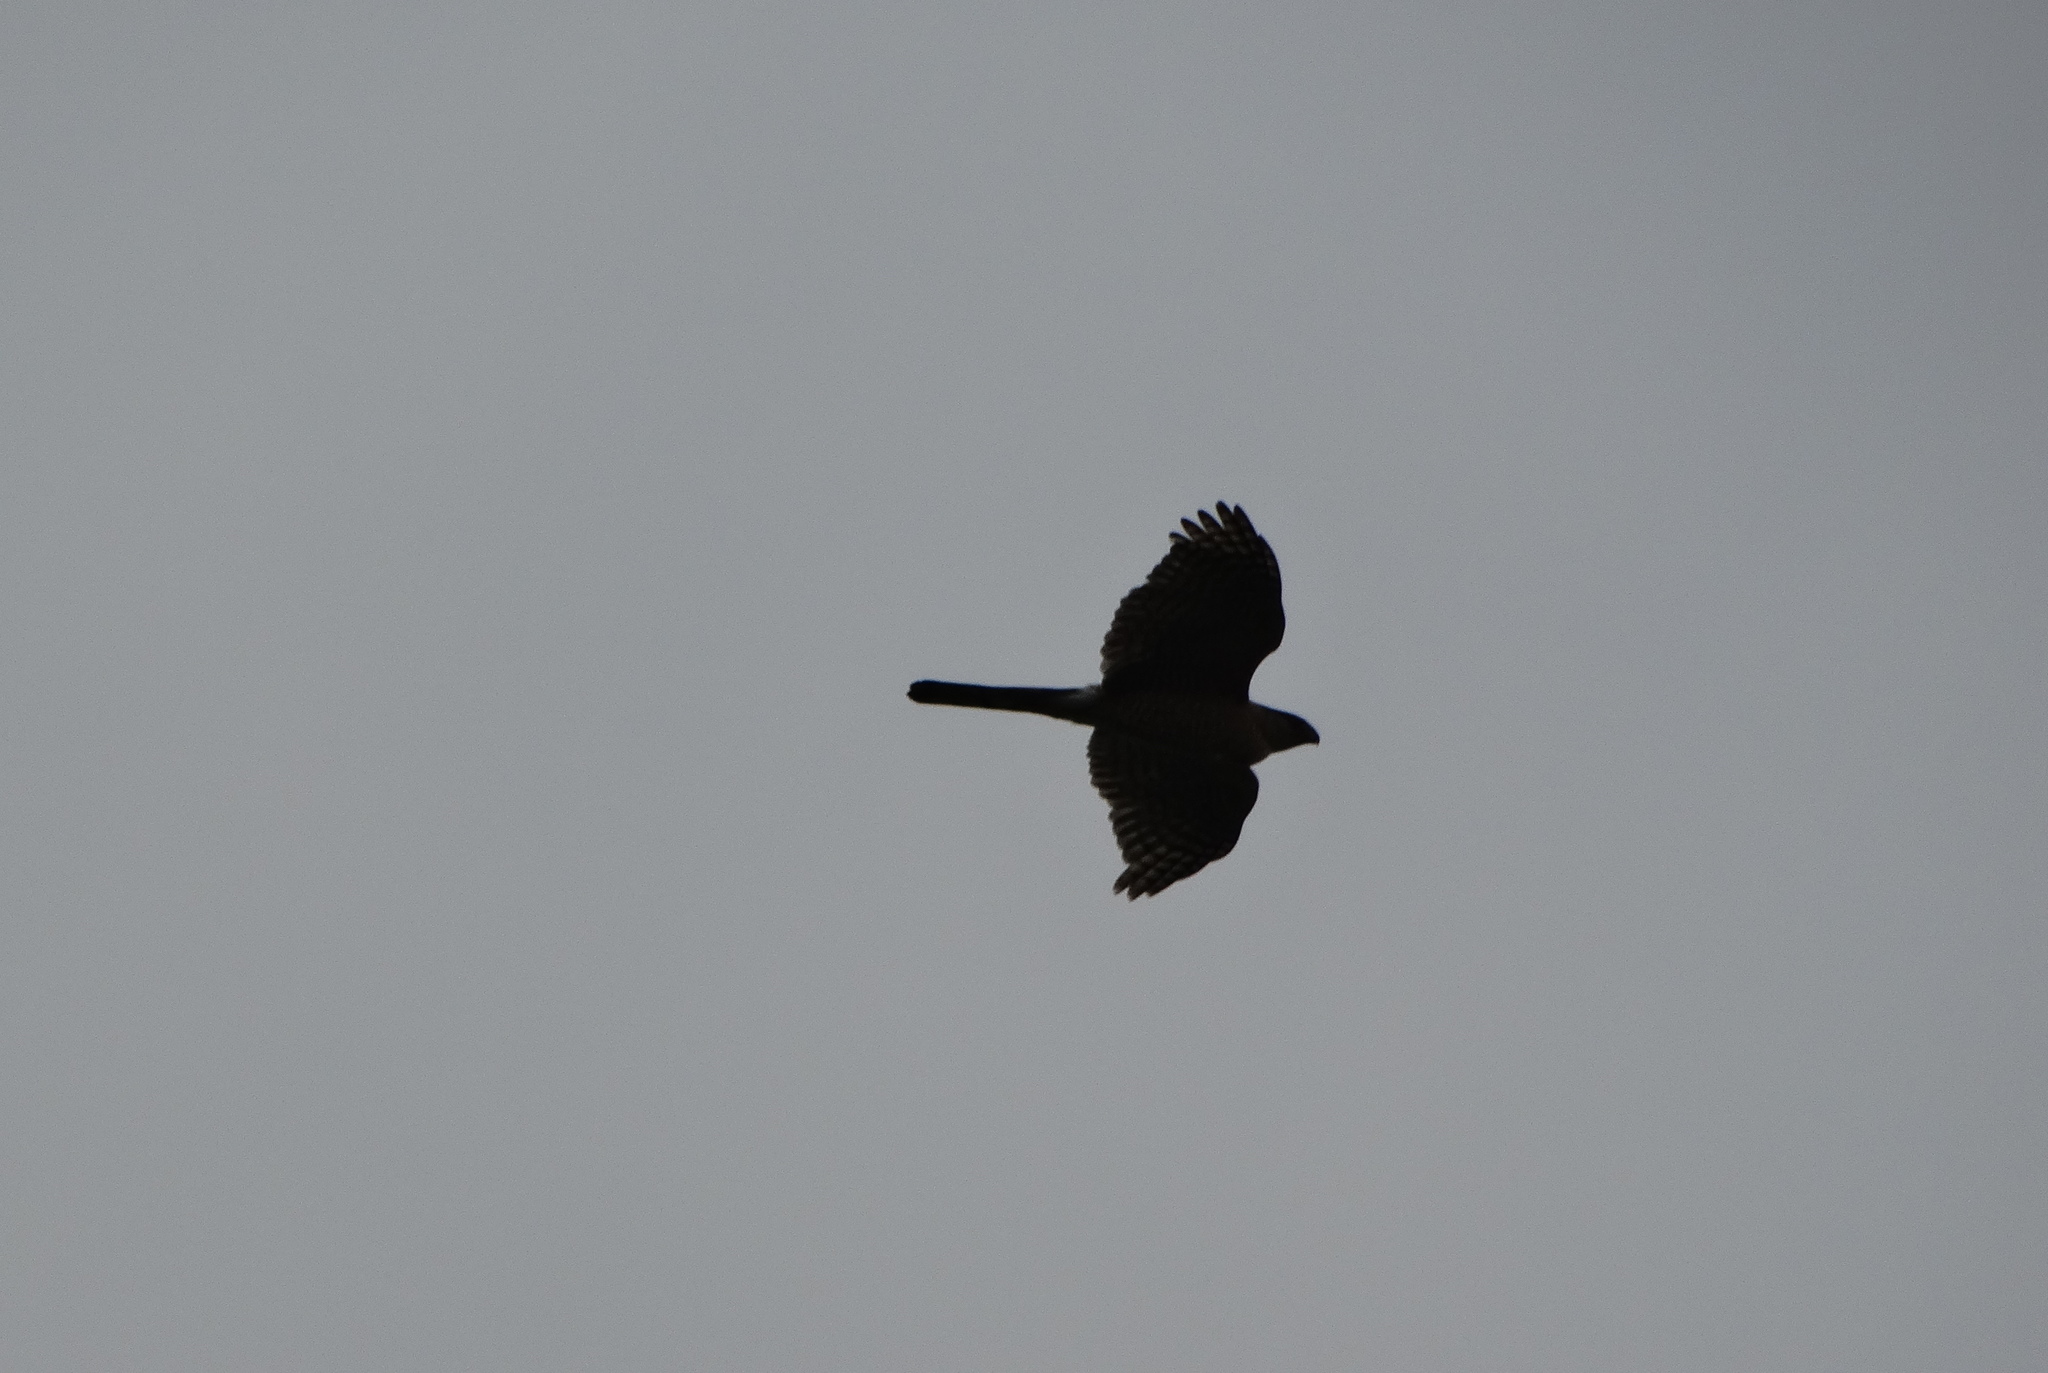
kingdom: Animalia
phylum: Chordata
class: Aves
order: Accipitriformes
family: Accipitridae
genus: Accipiter
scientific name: Accipiter cooperii
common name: Cooper's hawk
